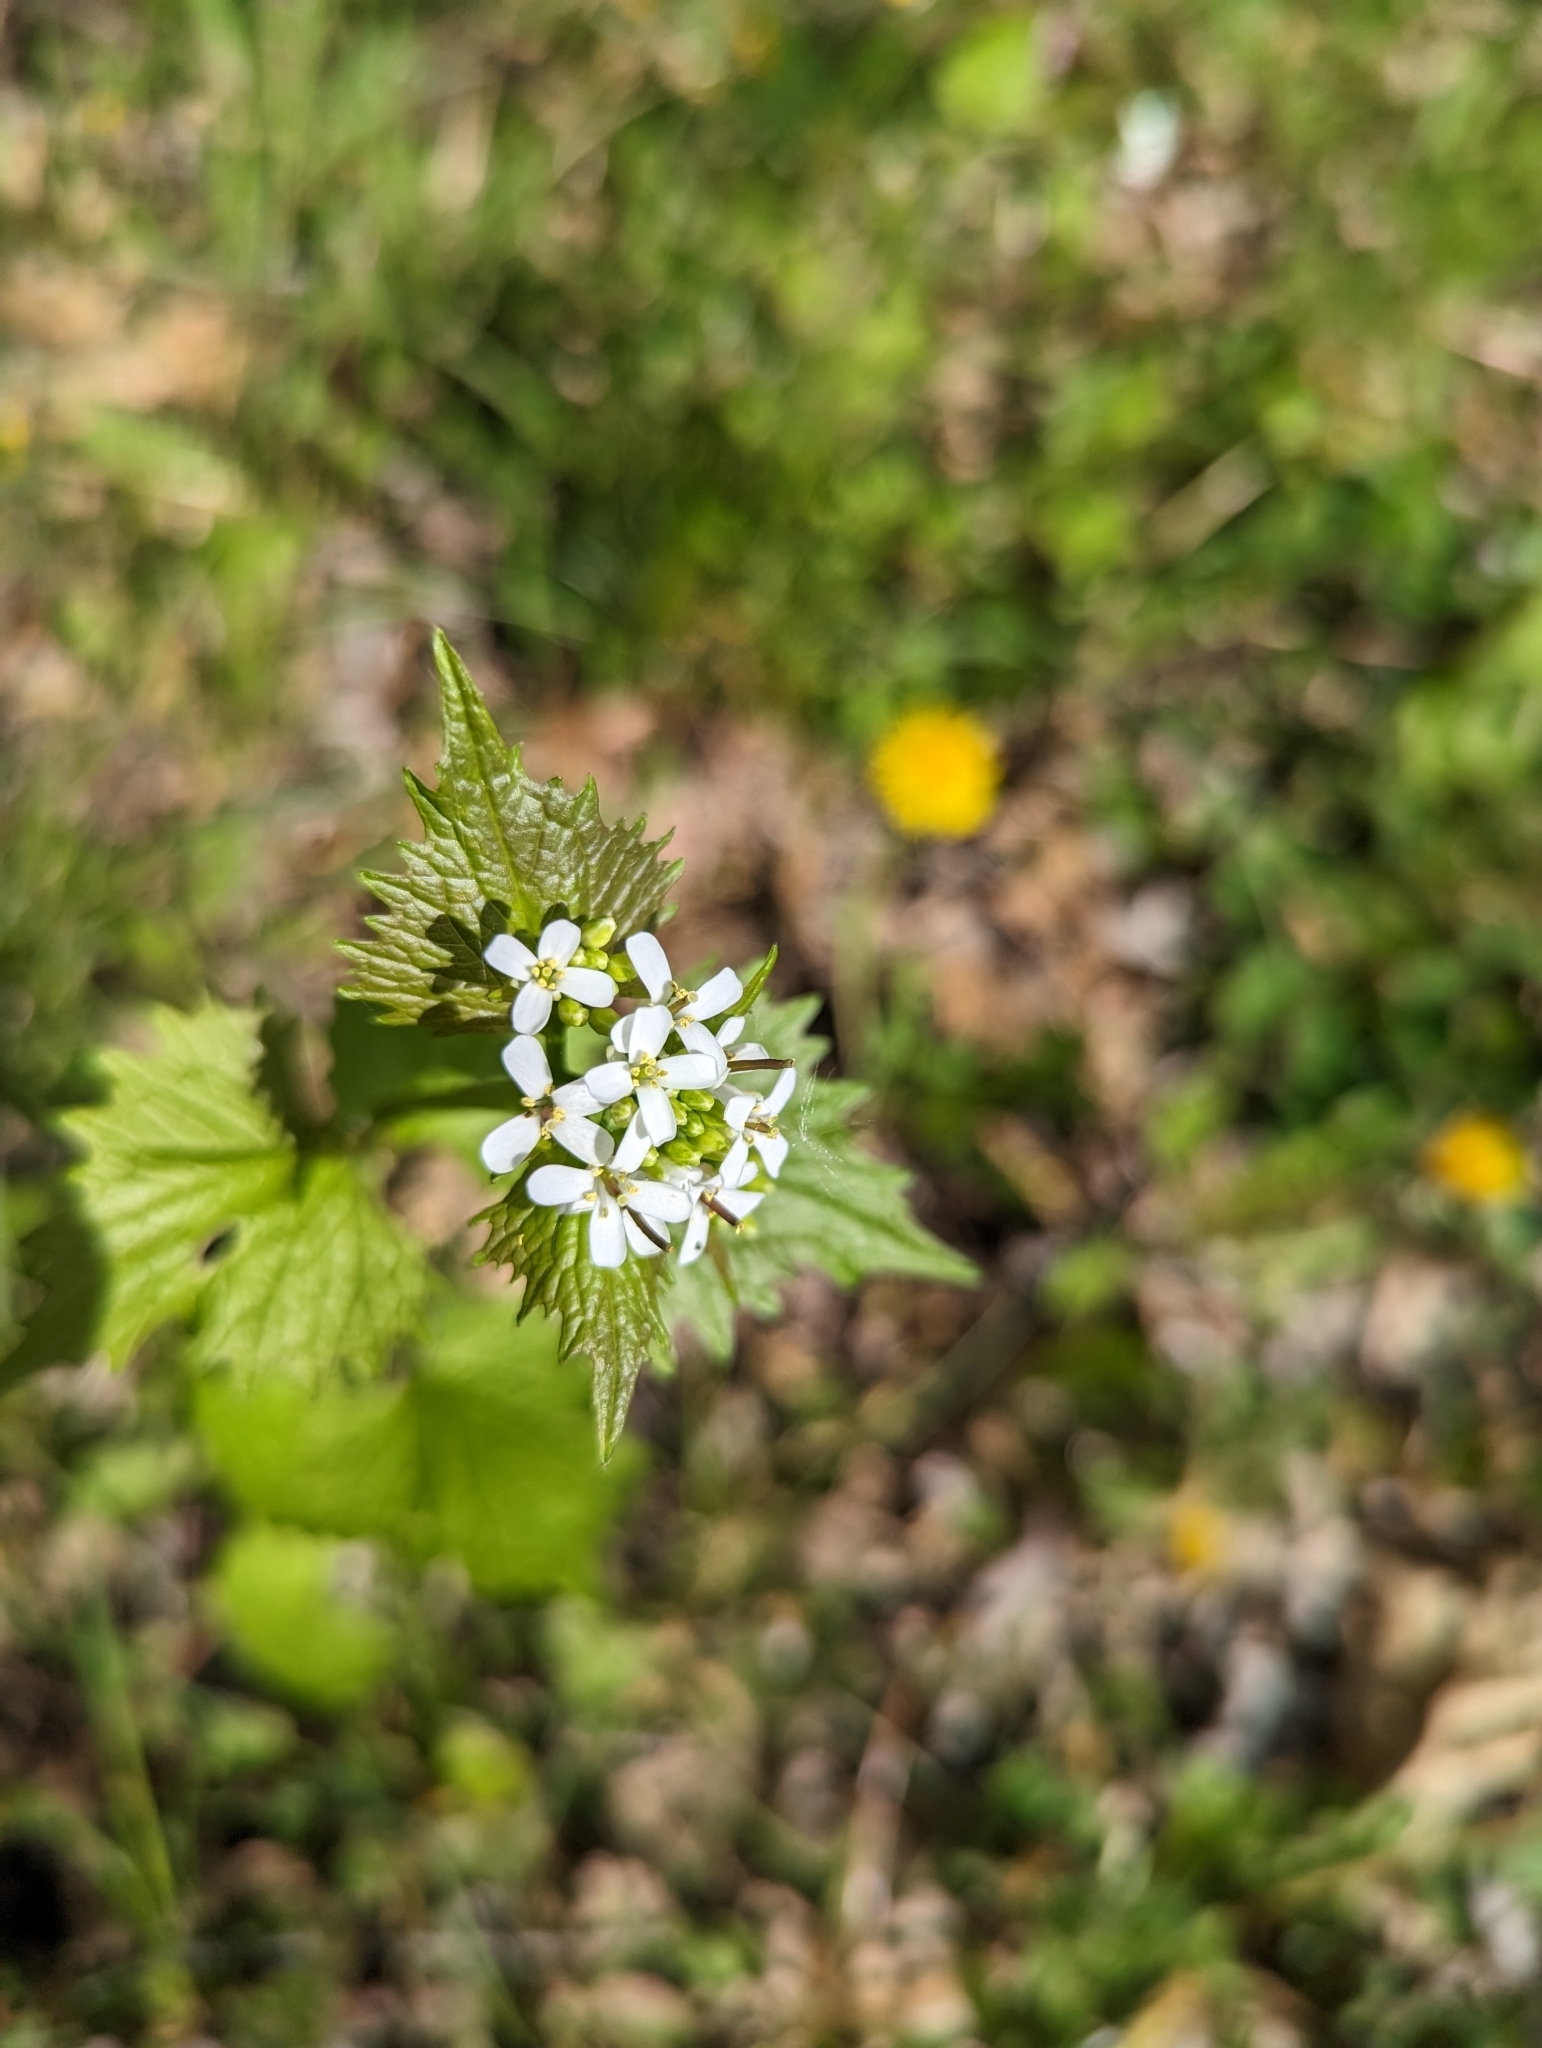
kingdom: Plantae
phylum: Tracheophyta
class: Magnoliopsida
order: Brassicales
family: Brassicaceae
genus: Alliaria
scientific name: Alliaria petiolata
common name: Garlic mustard
